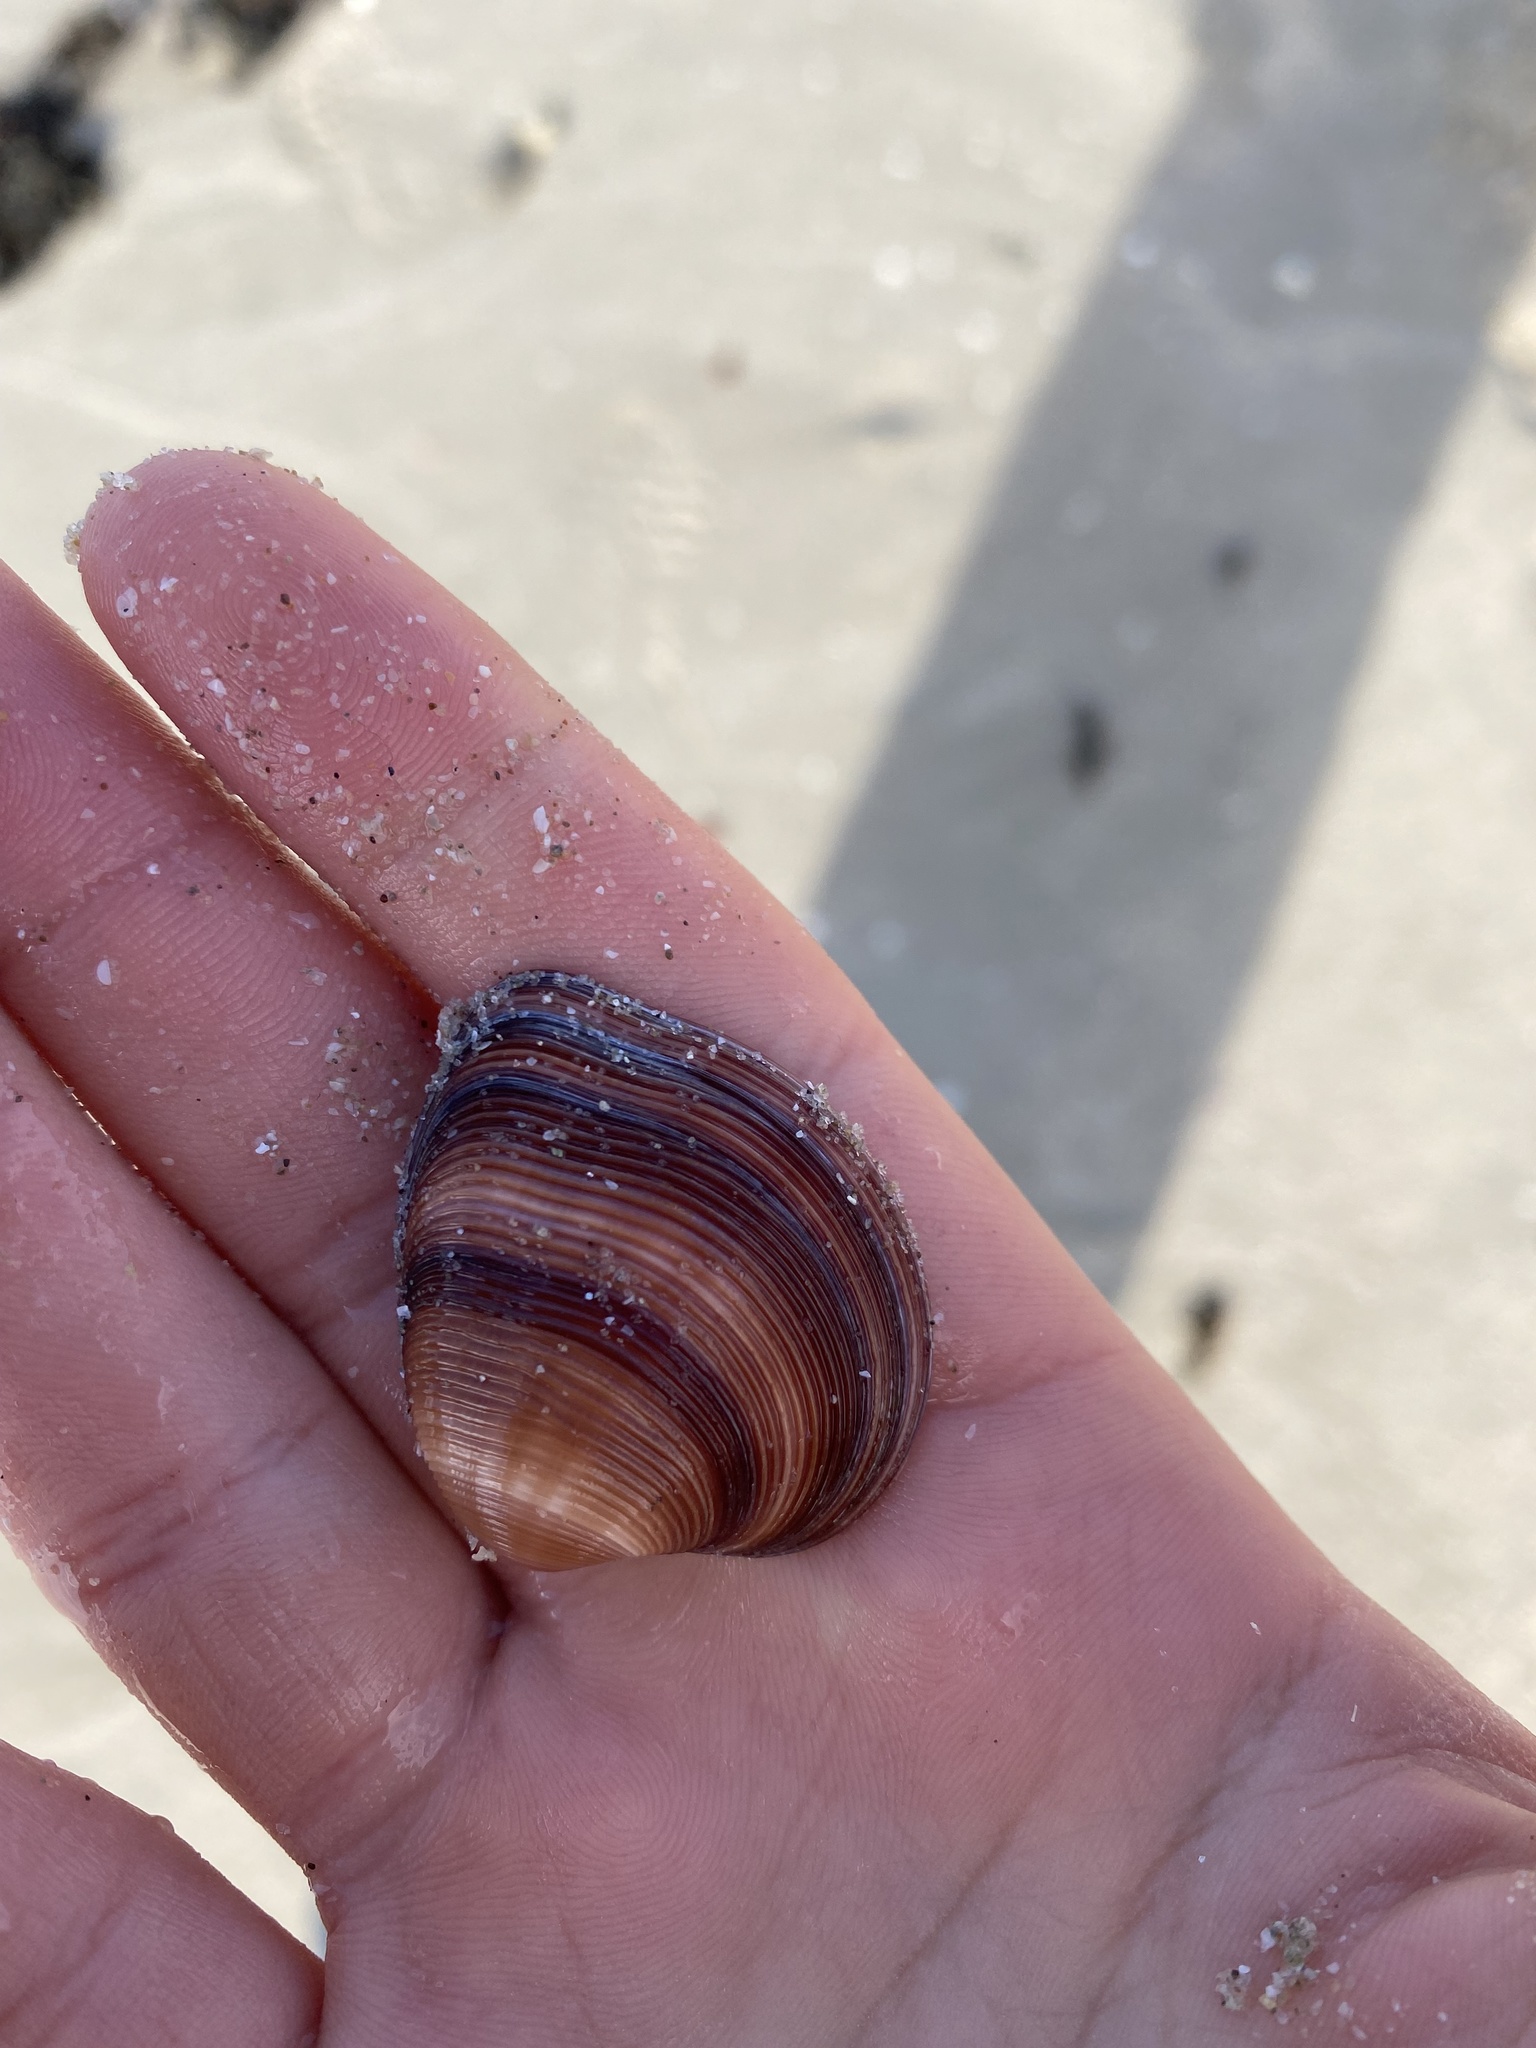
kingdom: Animalia
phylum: Mollusca
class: Bivalvia
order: Venerida
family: Veneridae
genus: Lamelliconcha
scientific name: Lamelliconcha concinna
